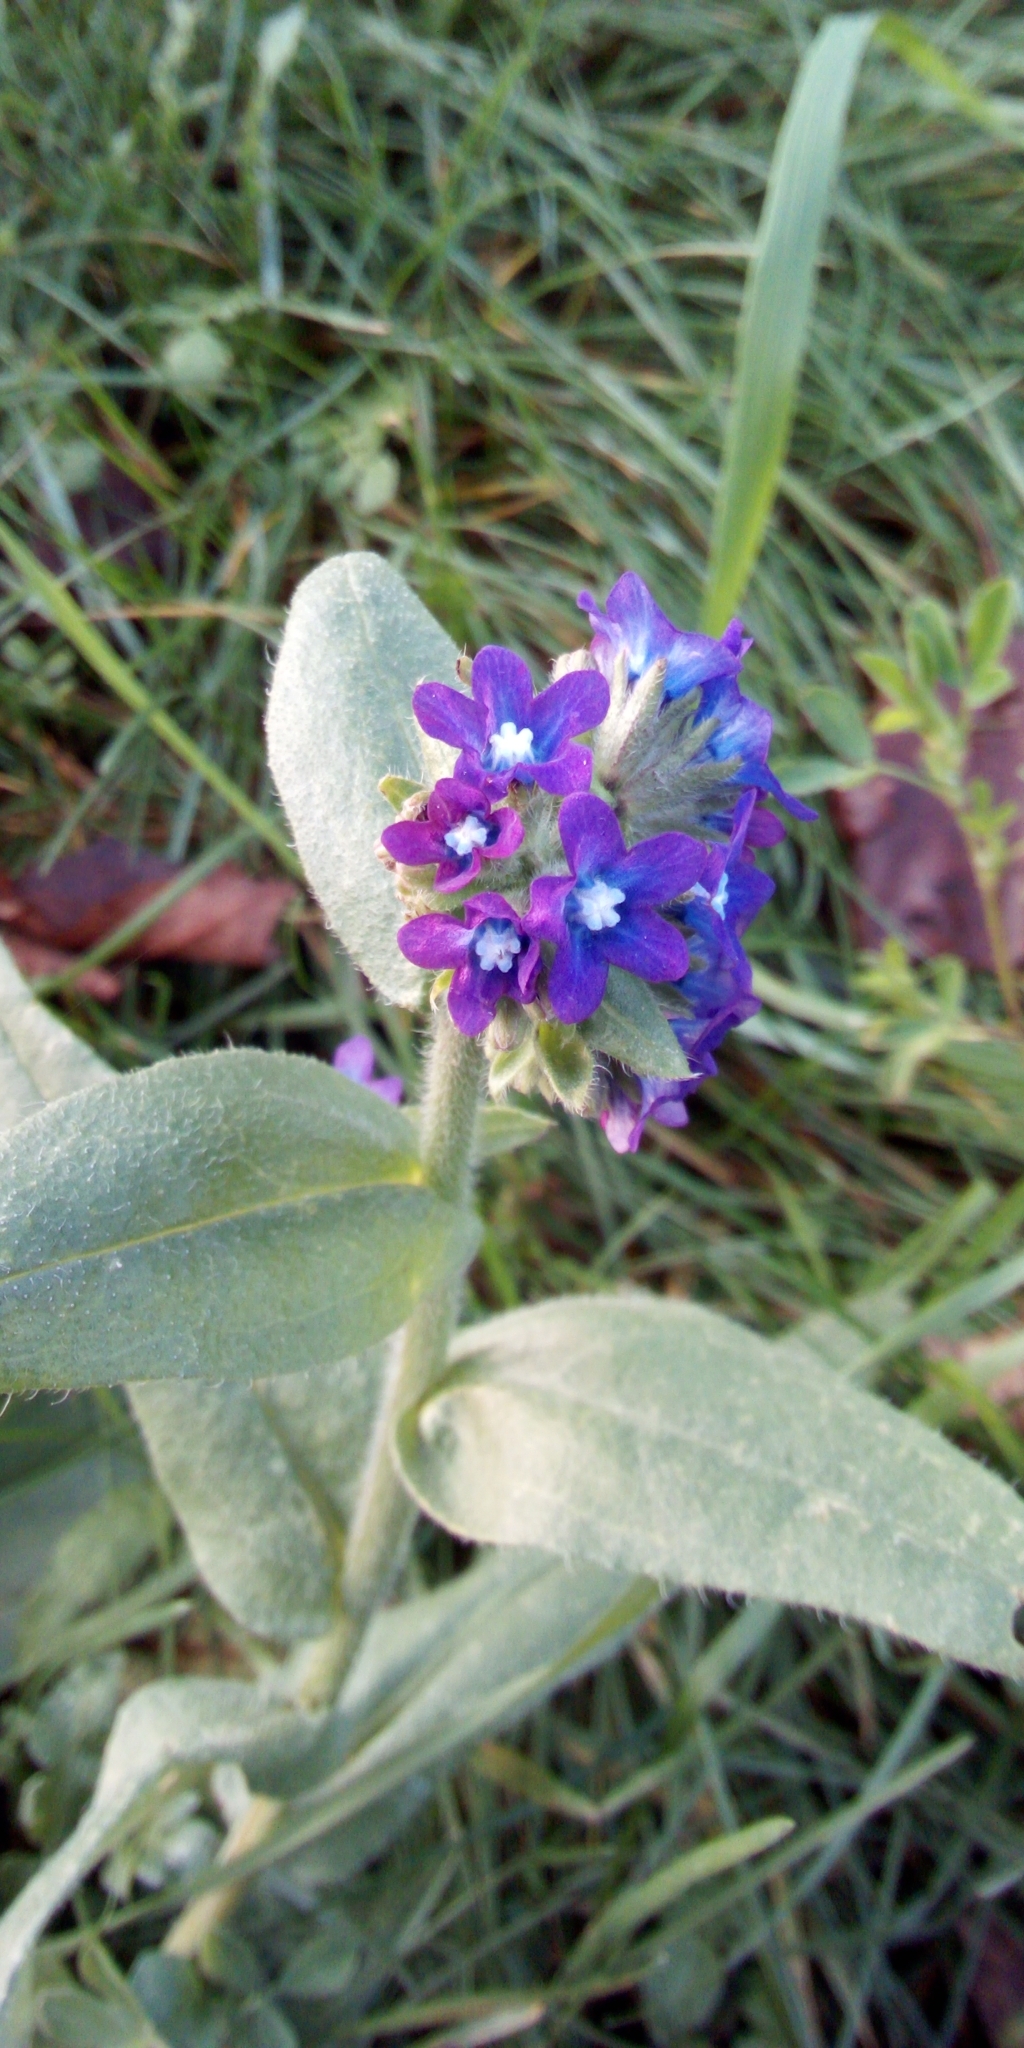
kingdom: Plantae
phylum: Tracheophyta
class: Magnoliopsida
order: Boraginales
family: Boraginaceae
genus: Anchusa
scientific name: Anchusa officinalis
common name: Alkanet
